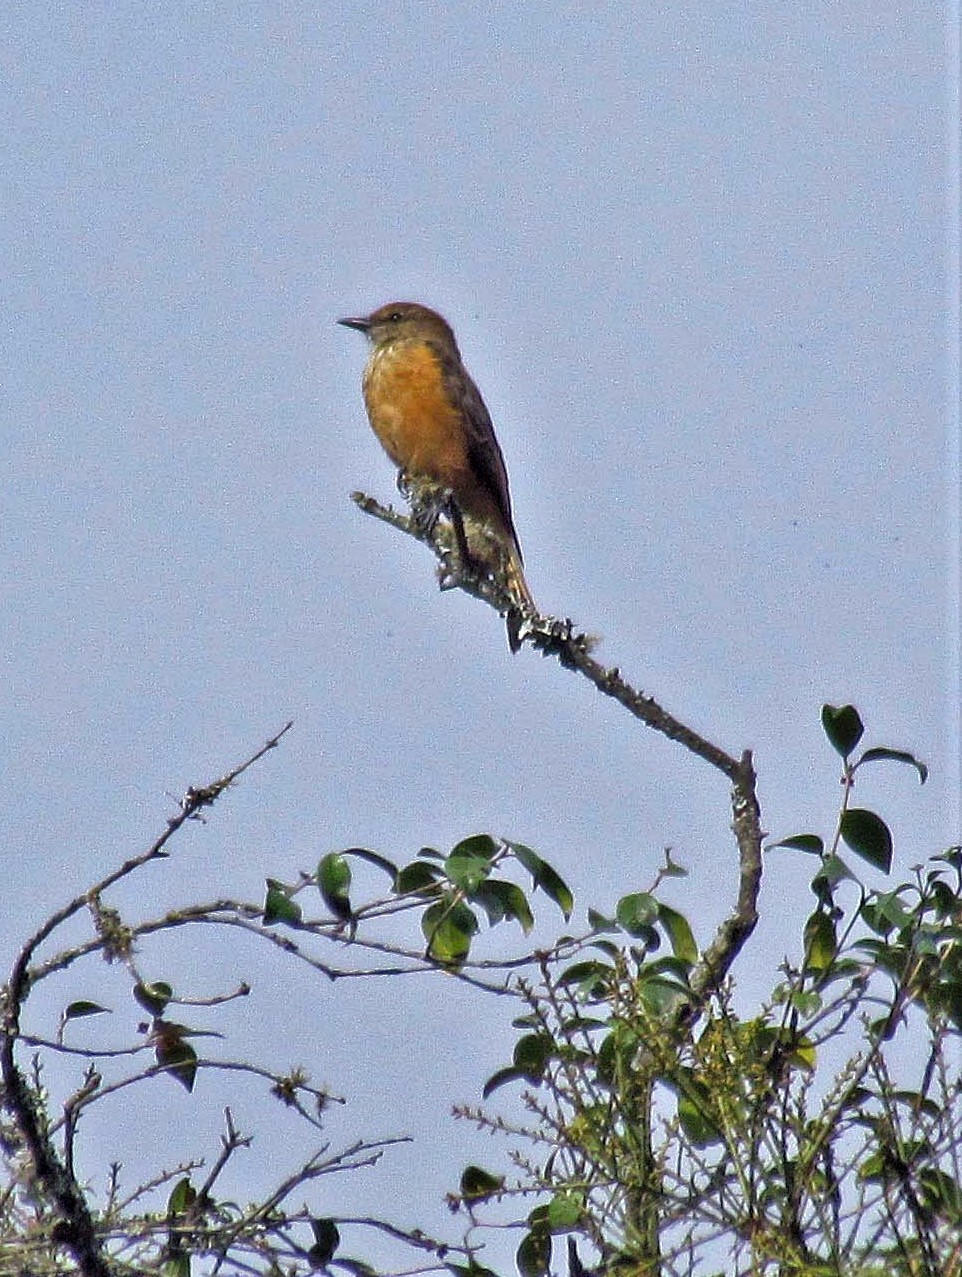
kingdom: Animalia
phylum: Chordata
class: Aves
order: Passeriformes
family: Tyrannidae
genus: Myiotheretes
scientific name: Myiotheretes striaticollis
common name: Streak-throated bush tyrant
